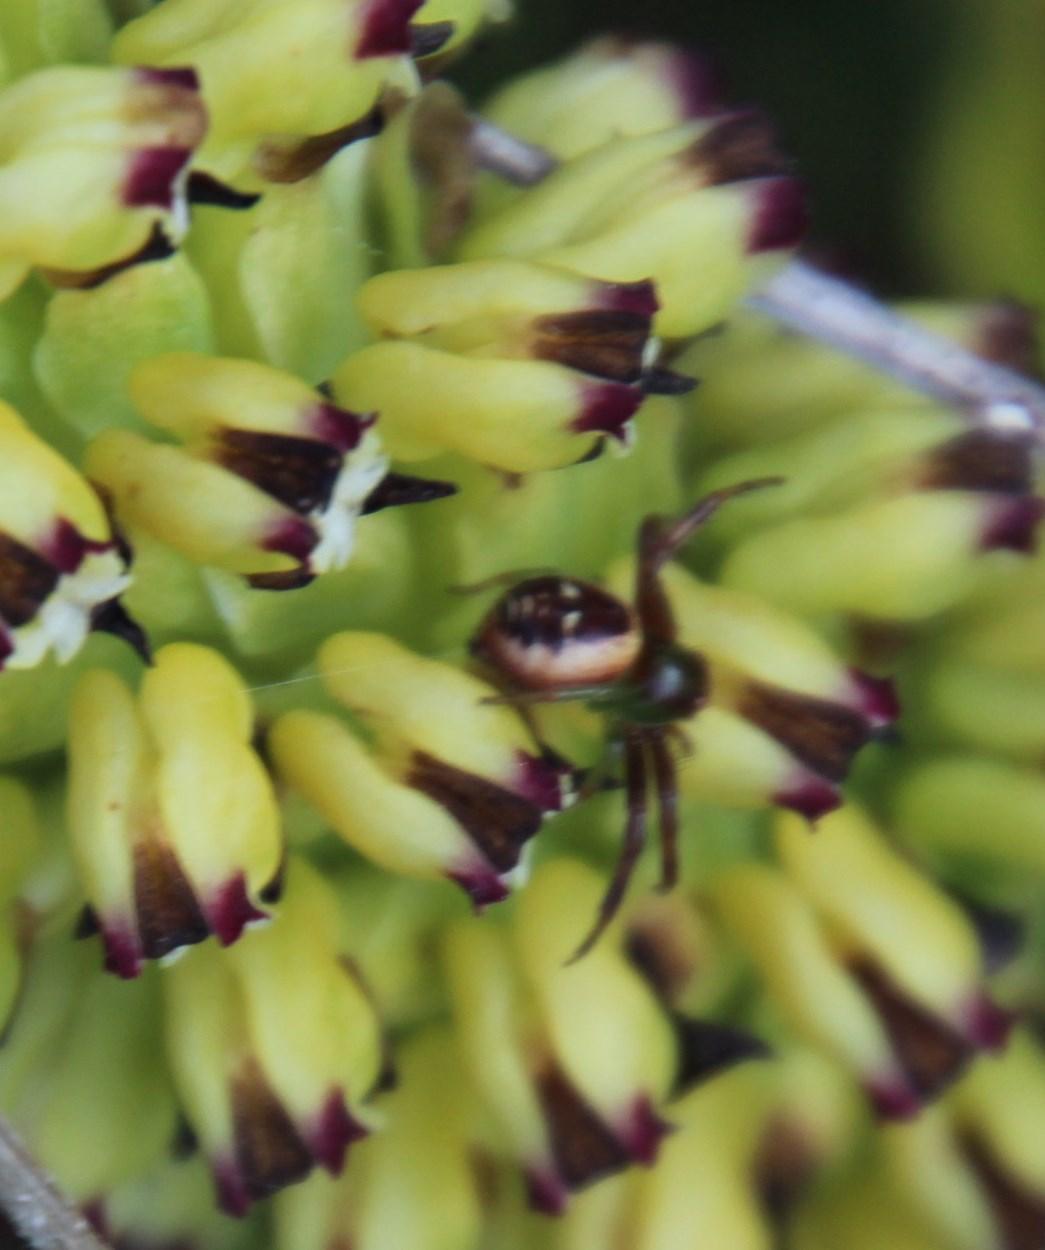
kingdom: Animalia
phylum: Arthropoda
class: Arachnida
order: Araneae
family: Thomisidae
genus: Synema
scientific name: Synema imitatrix
